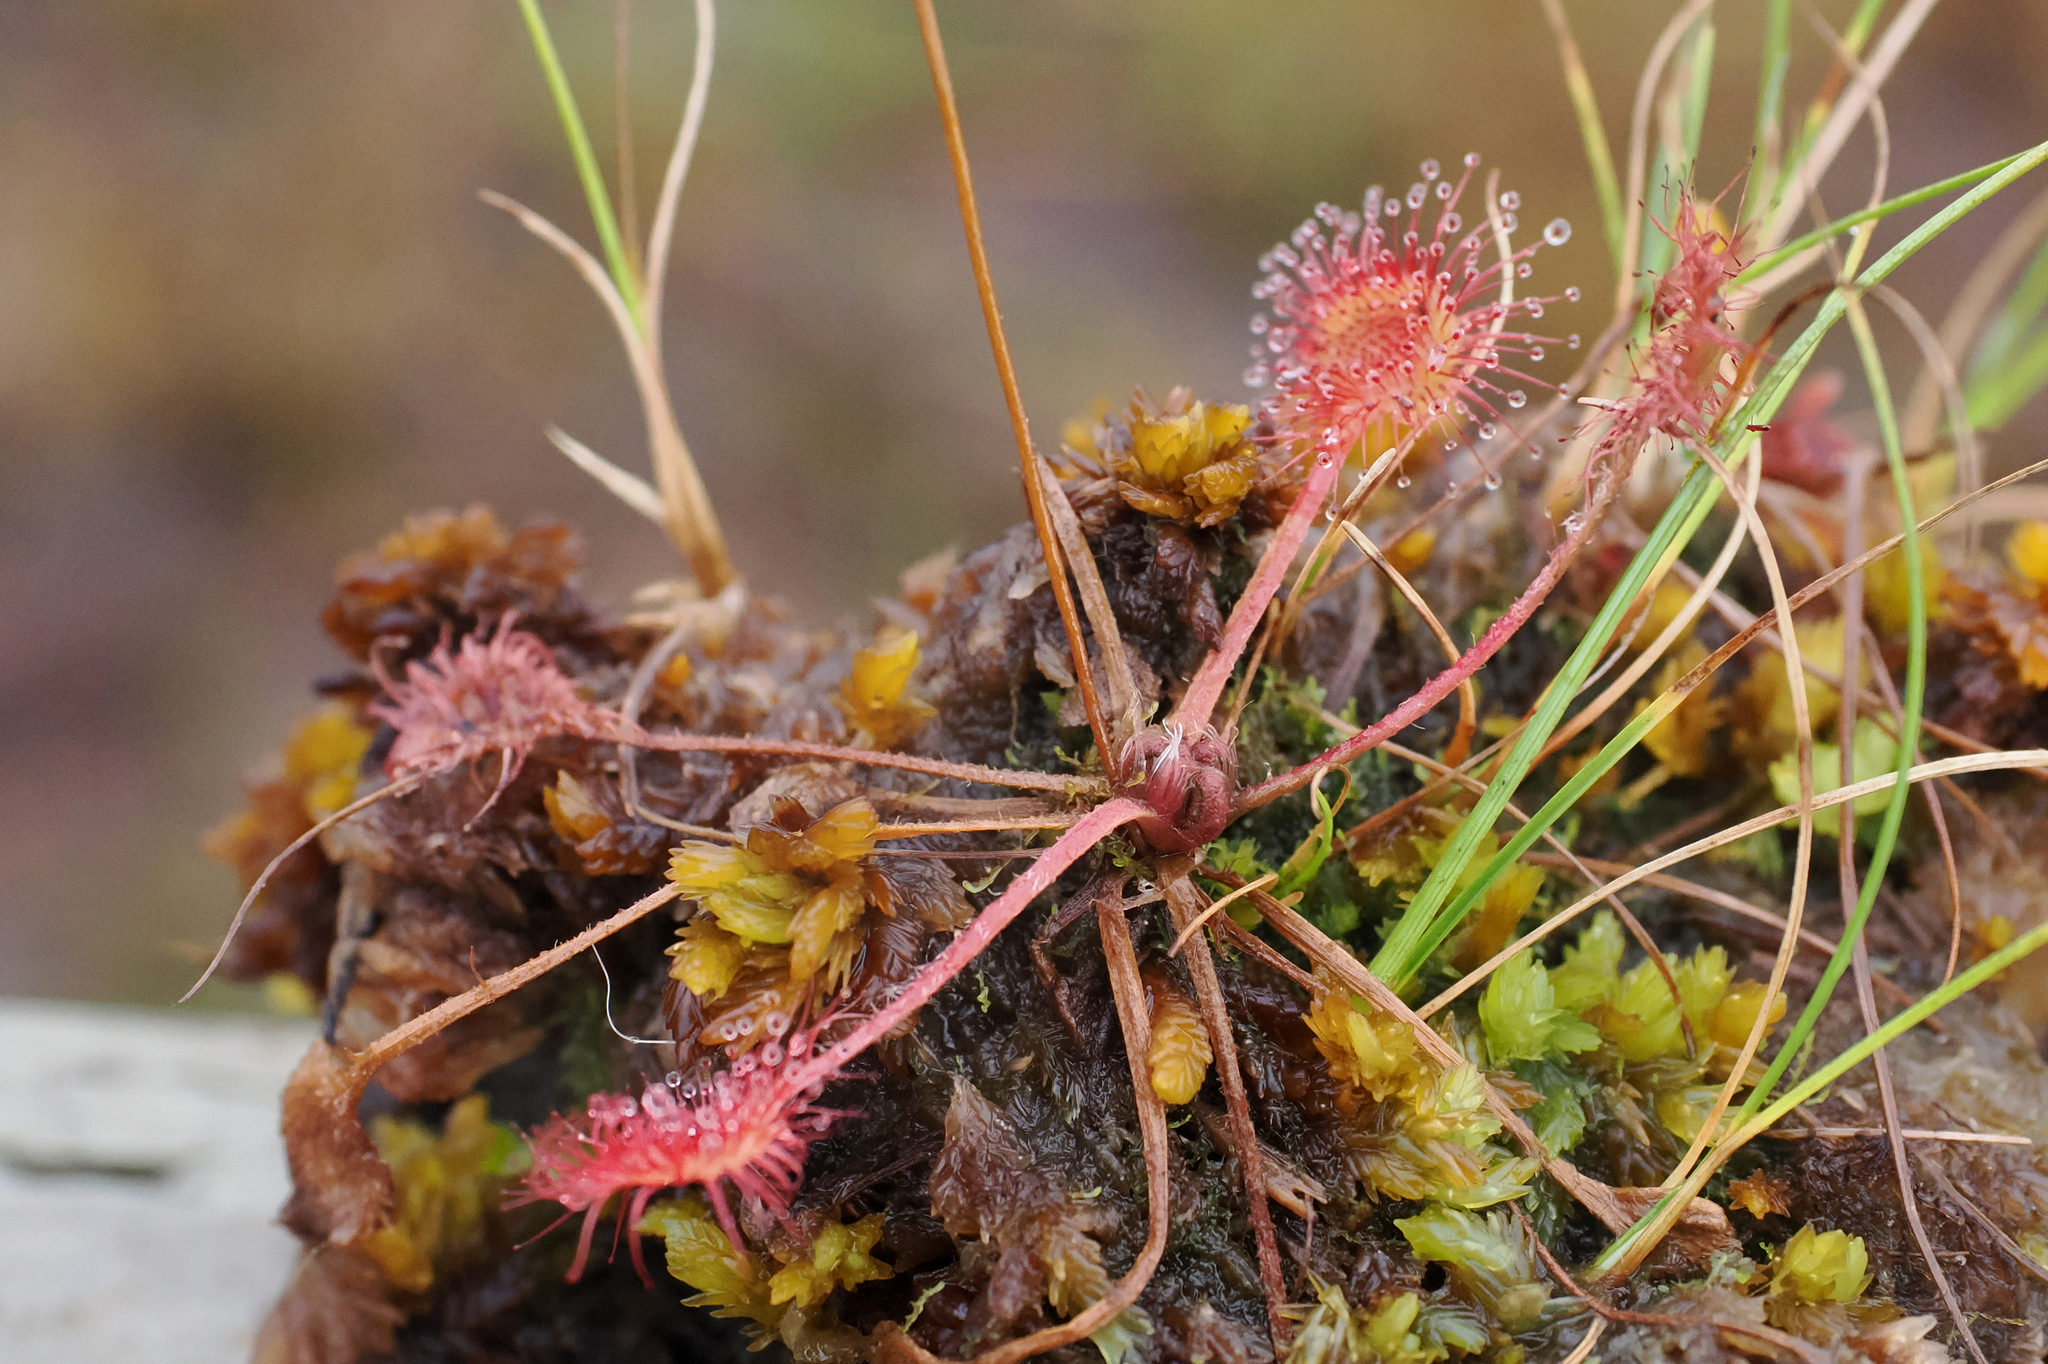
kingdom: Plantae
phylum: Tracheophyta
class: Magnoliopsida
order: Caryophyllales
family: Droseraceae
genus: Drosera
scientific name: Drosera rotundifolia
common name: Round-leaved sundew
